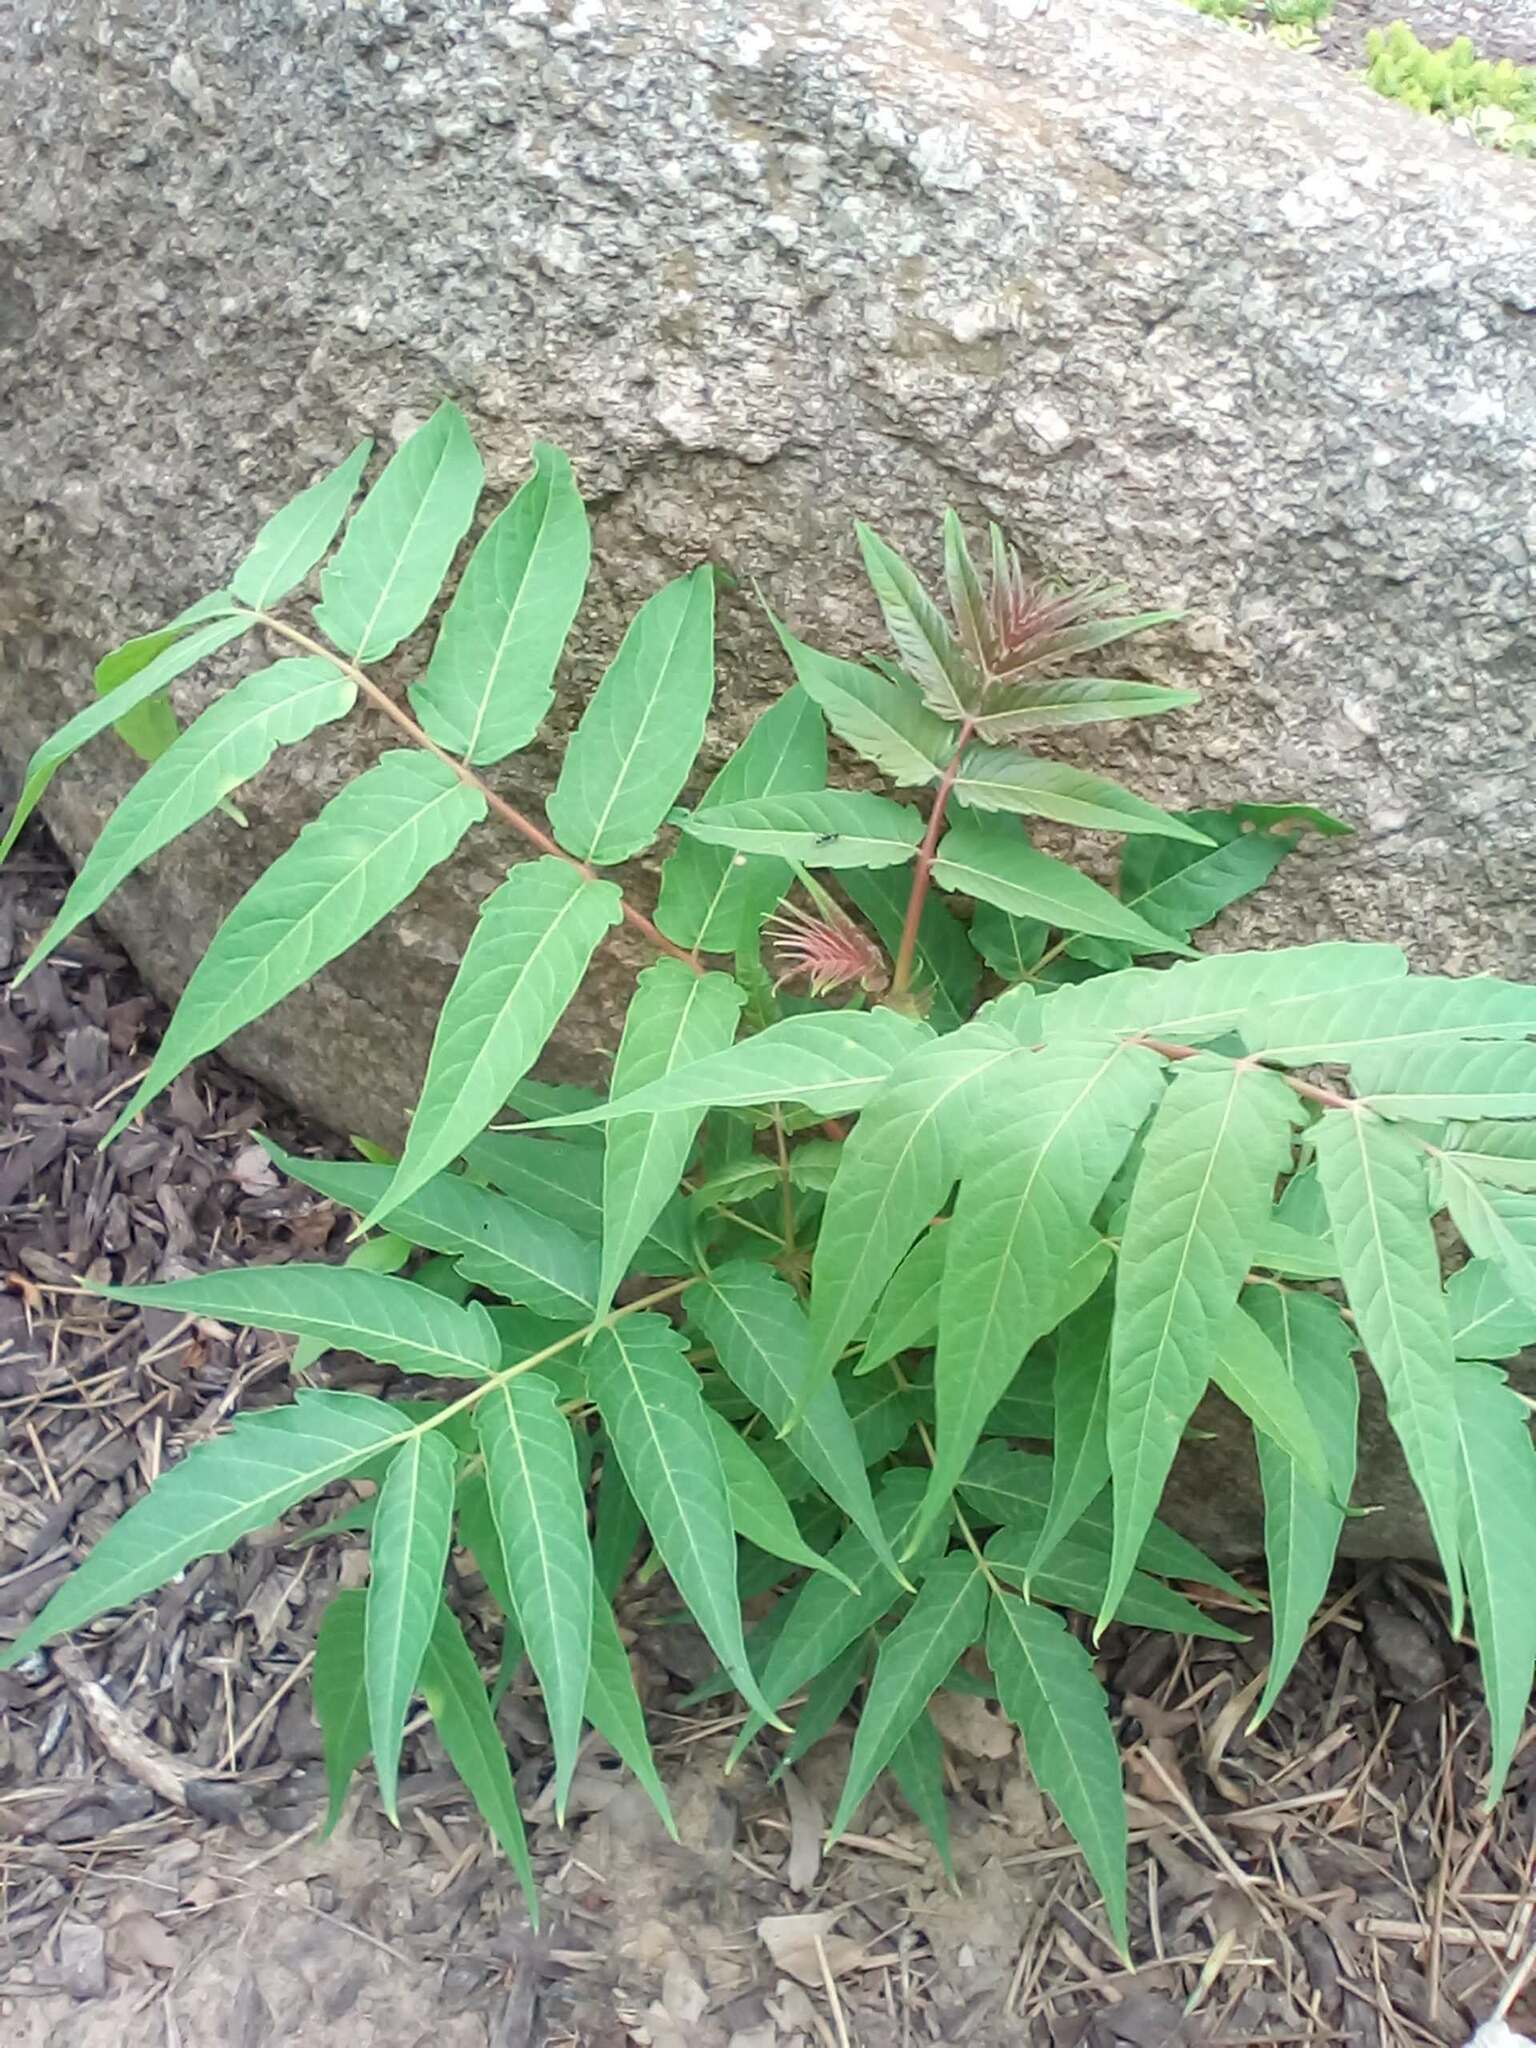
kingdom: Plantae
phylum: Tracheophyta
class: Magnoliopsida
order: Sapindales
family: Simaroubaceae
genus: Ailanthus
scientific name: Ailanthus altissima
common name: Tree-of-heaven
